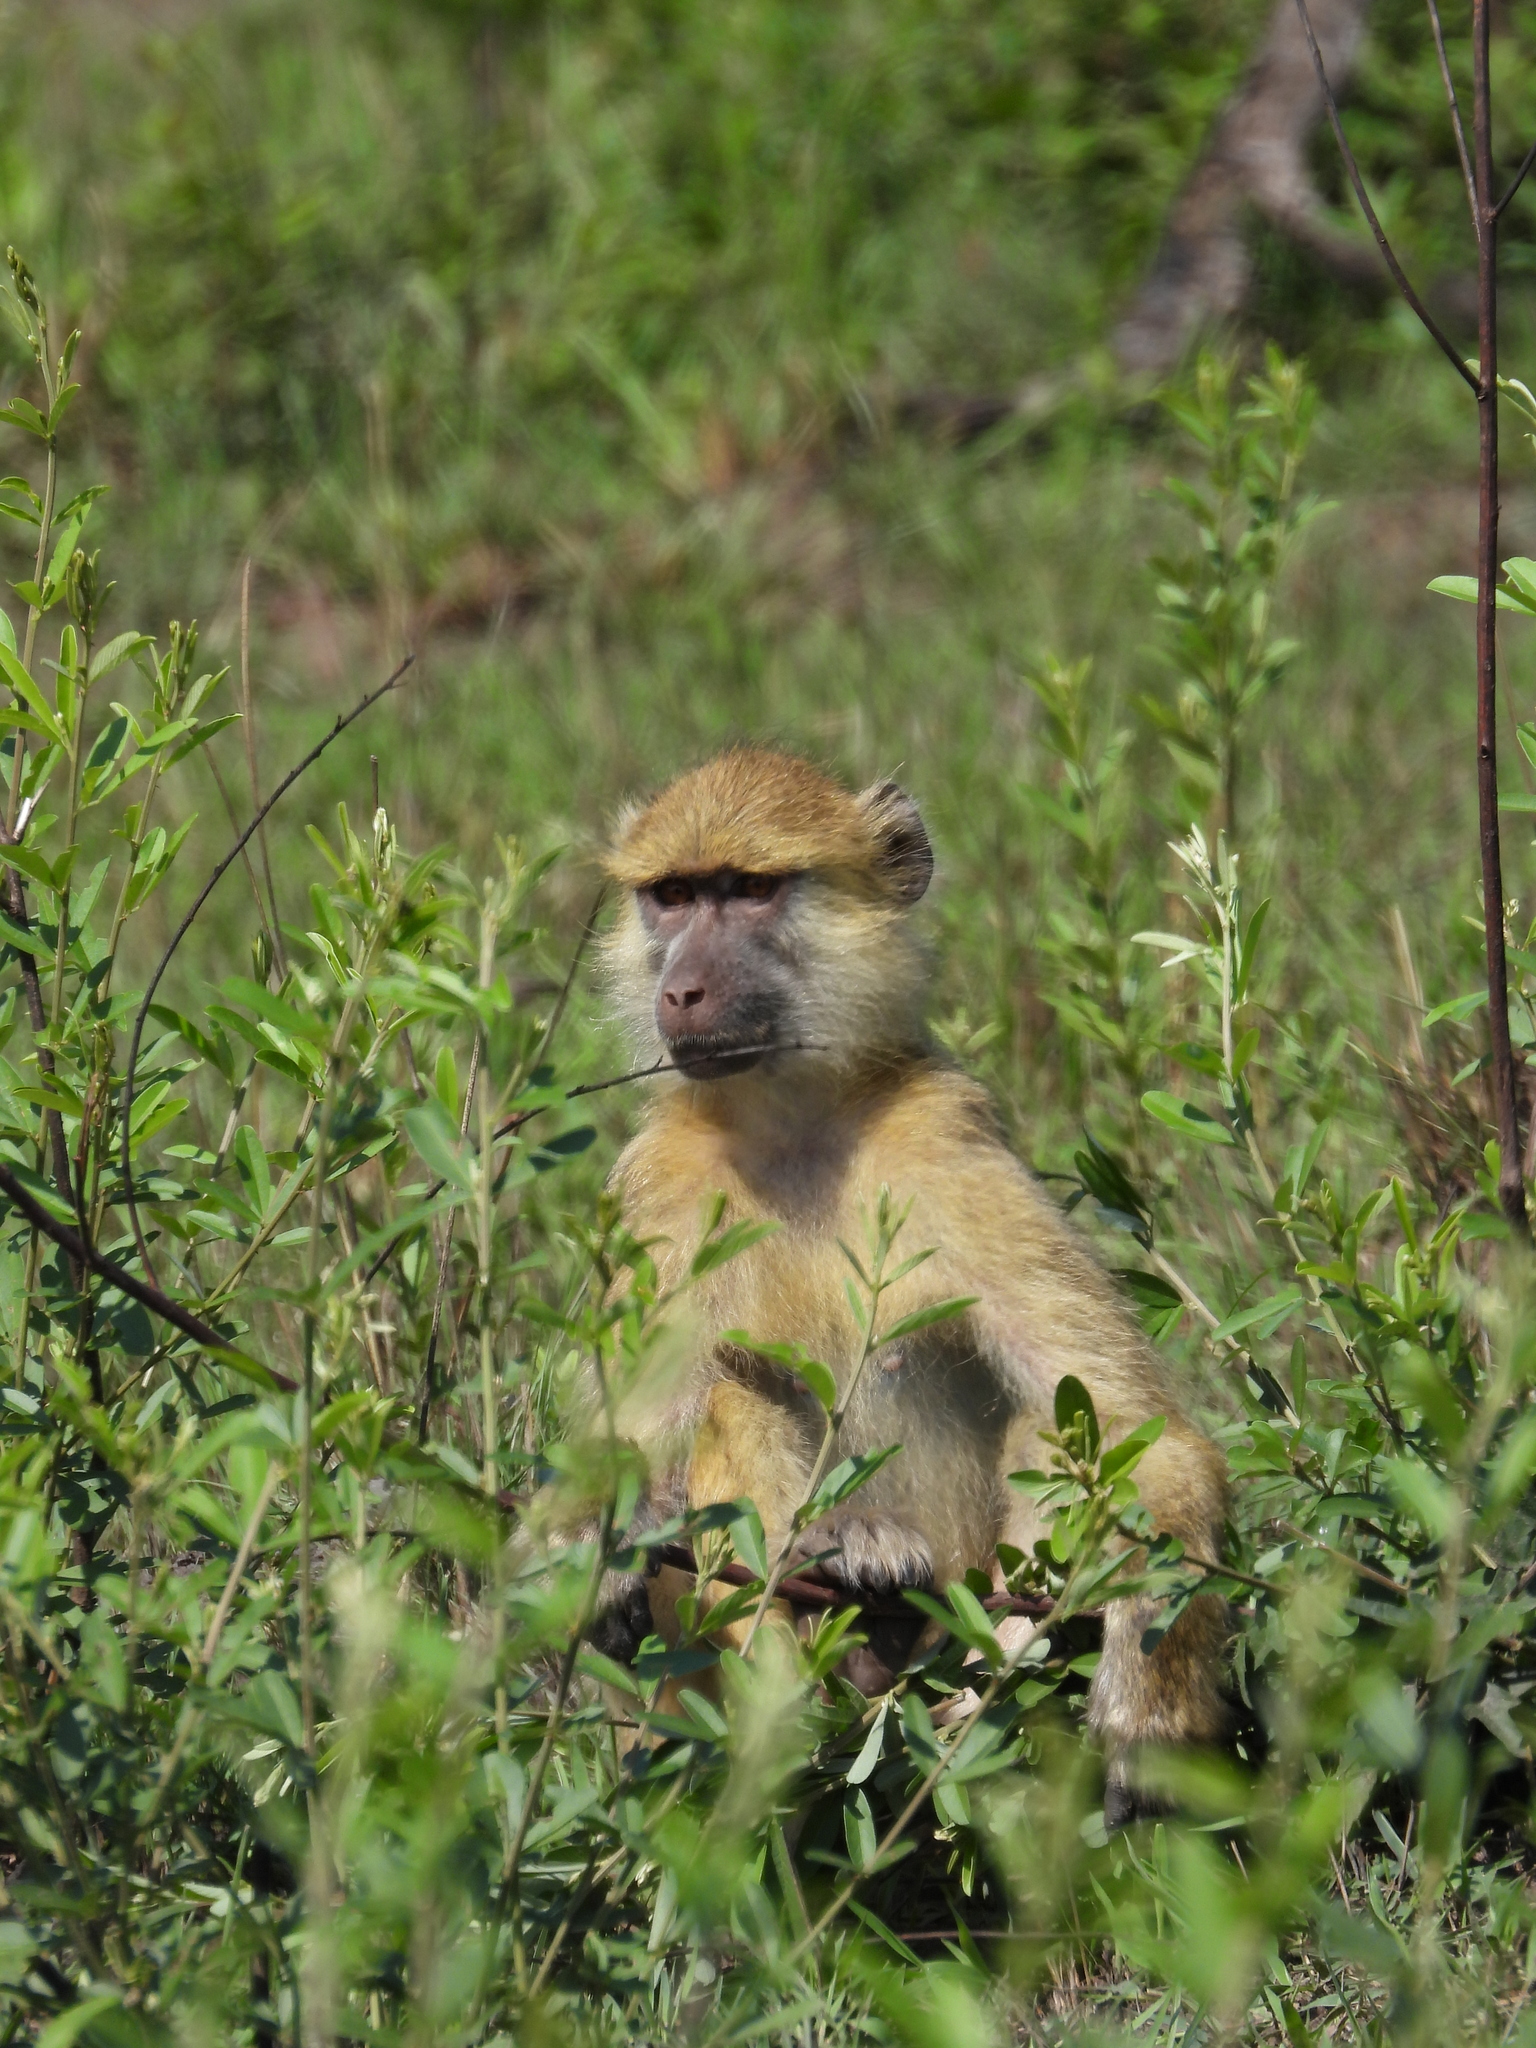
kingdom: Animalia
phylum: Chordata
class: Mammalia
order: Primates
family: Cercopithecidae
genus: Papio
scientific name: Papio kindae
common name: Kinda baboon
